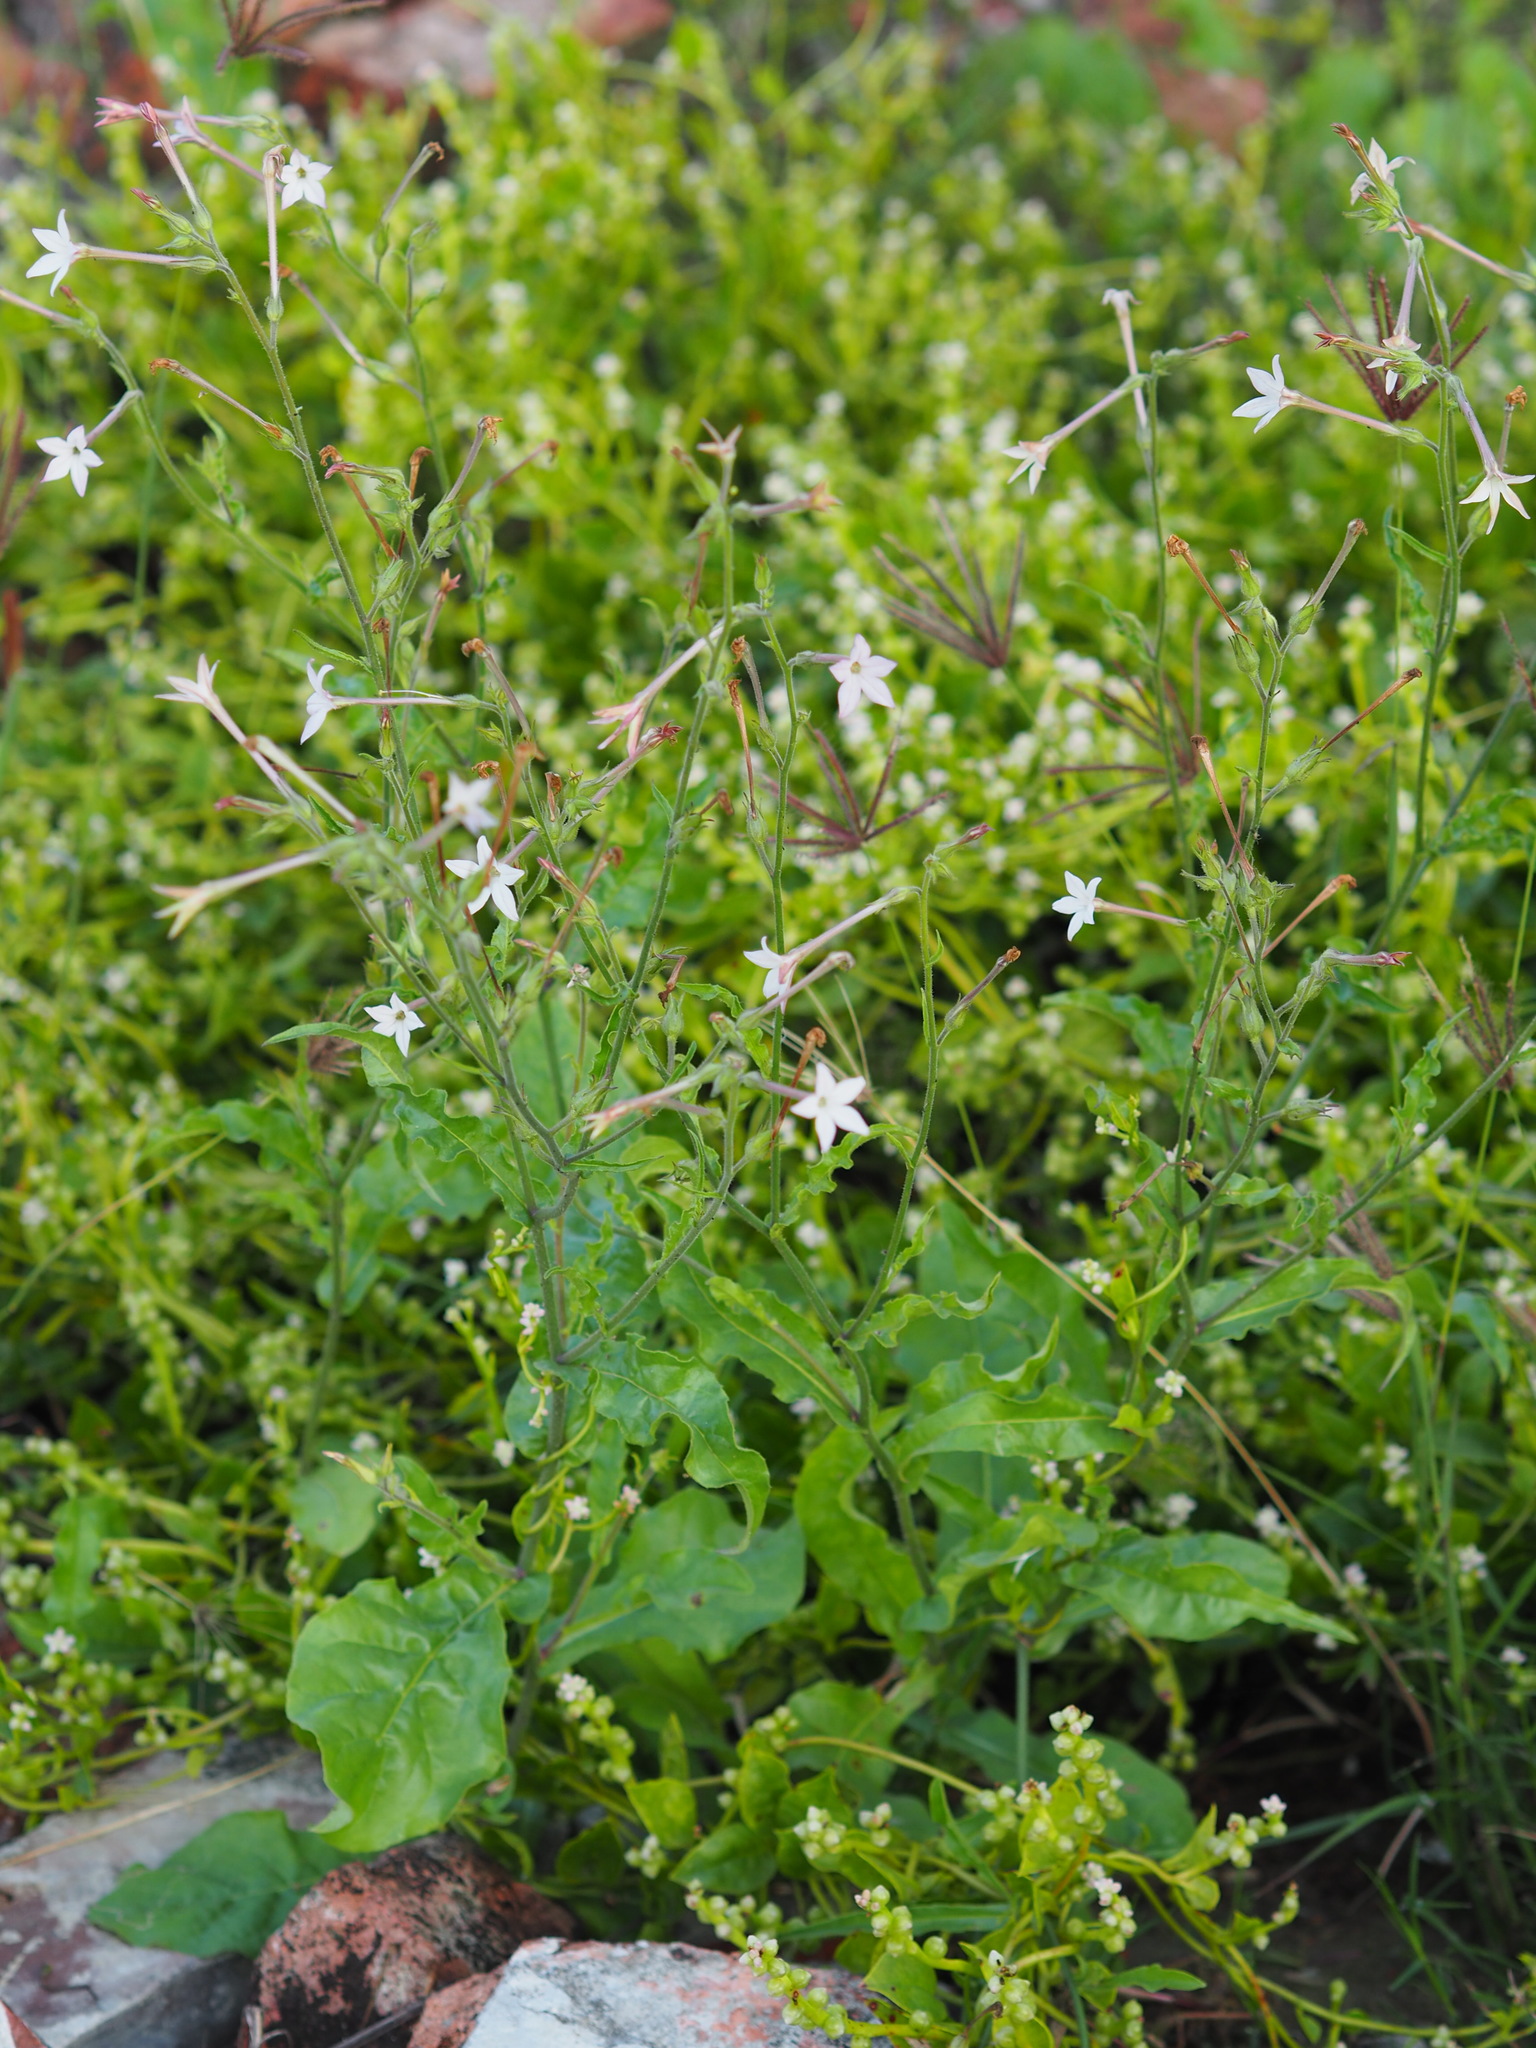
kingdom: Plantae
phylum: Tracheophyta
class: Magnoliopsida
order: Solanales
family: Solanaceae
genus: Nicotiana
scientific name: Nicotiana plumbaginifolia
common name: Tex-mex tobacco
